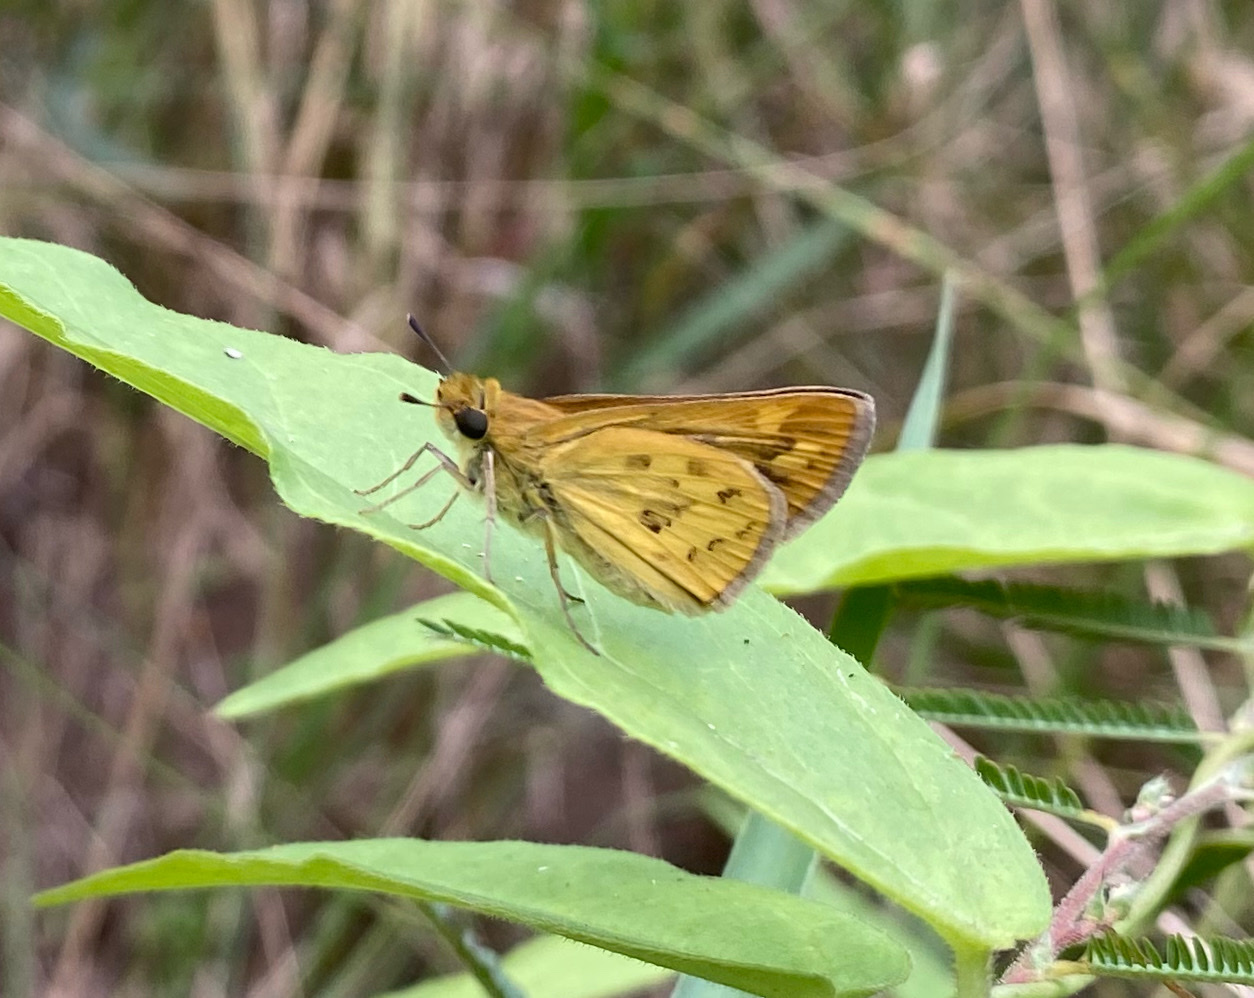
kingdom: Animalia
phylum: Arthropoda
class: Insecta
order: Hymenoptera
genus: Afrogenes
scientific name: Afrogenes
